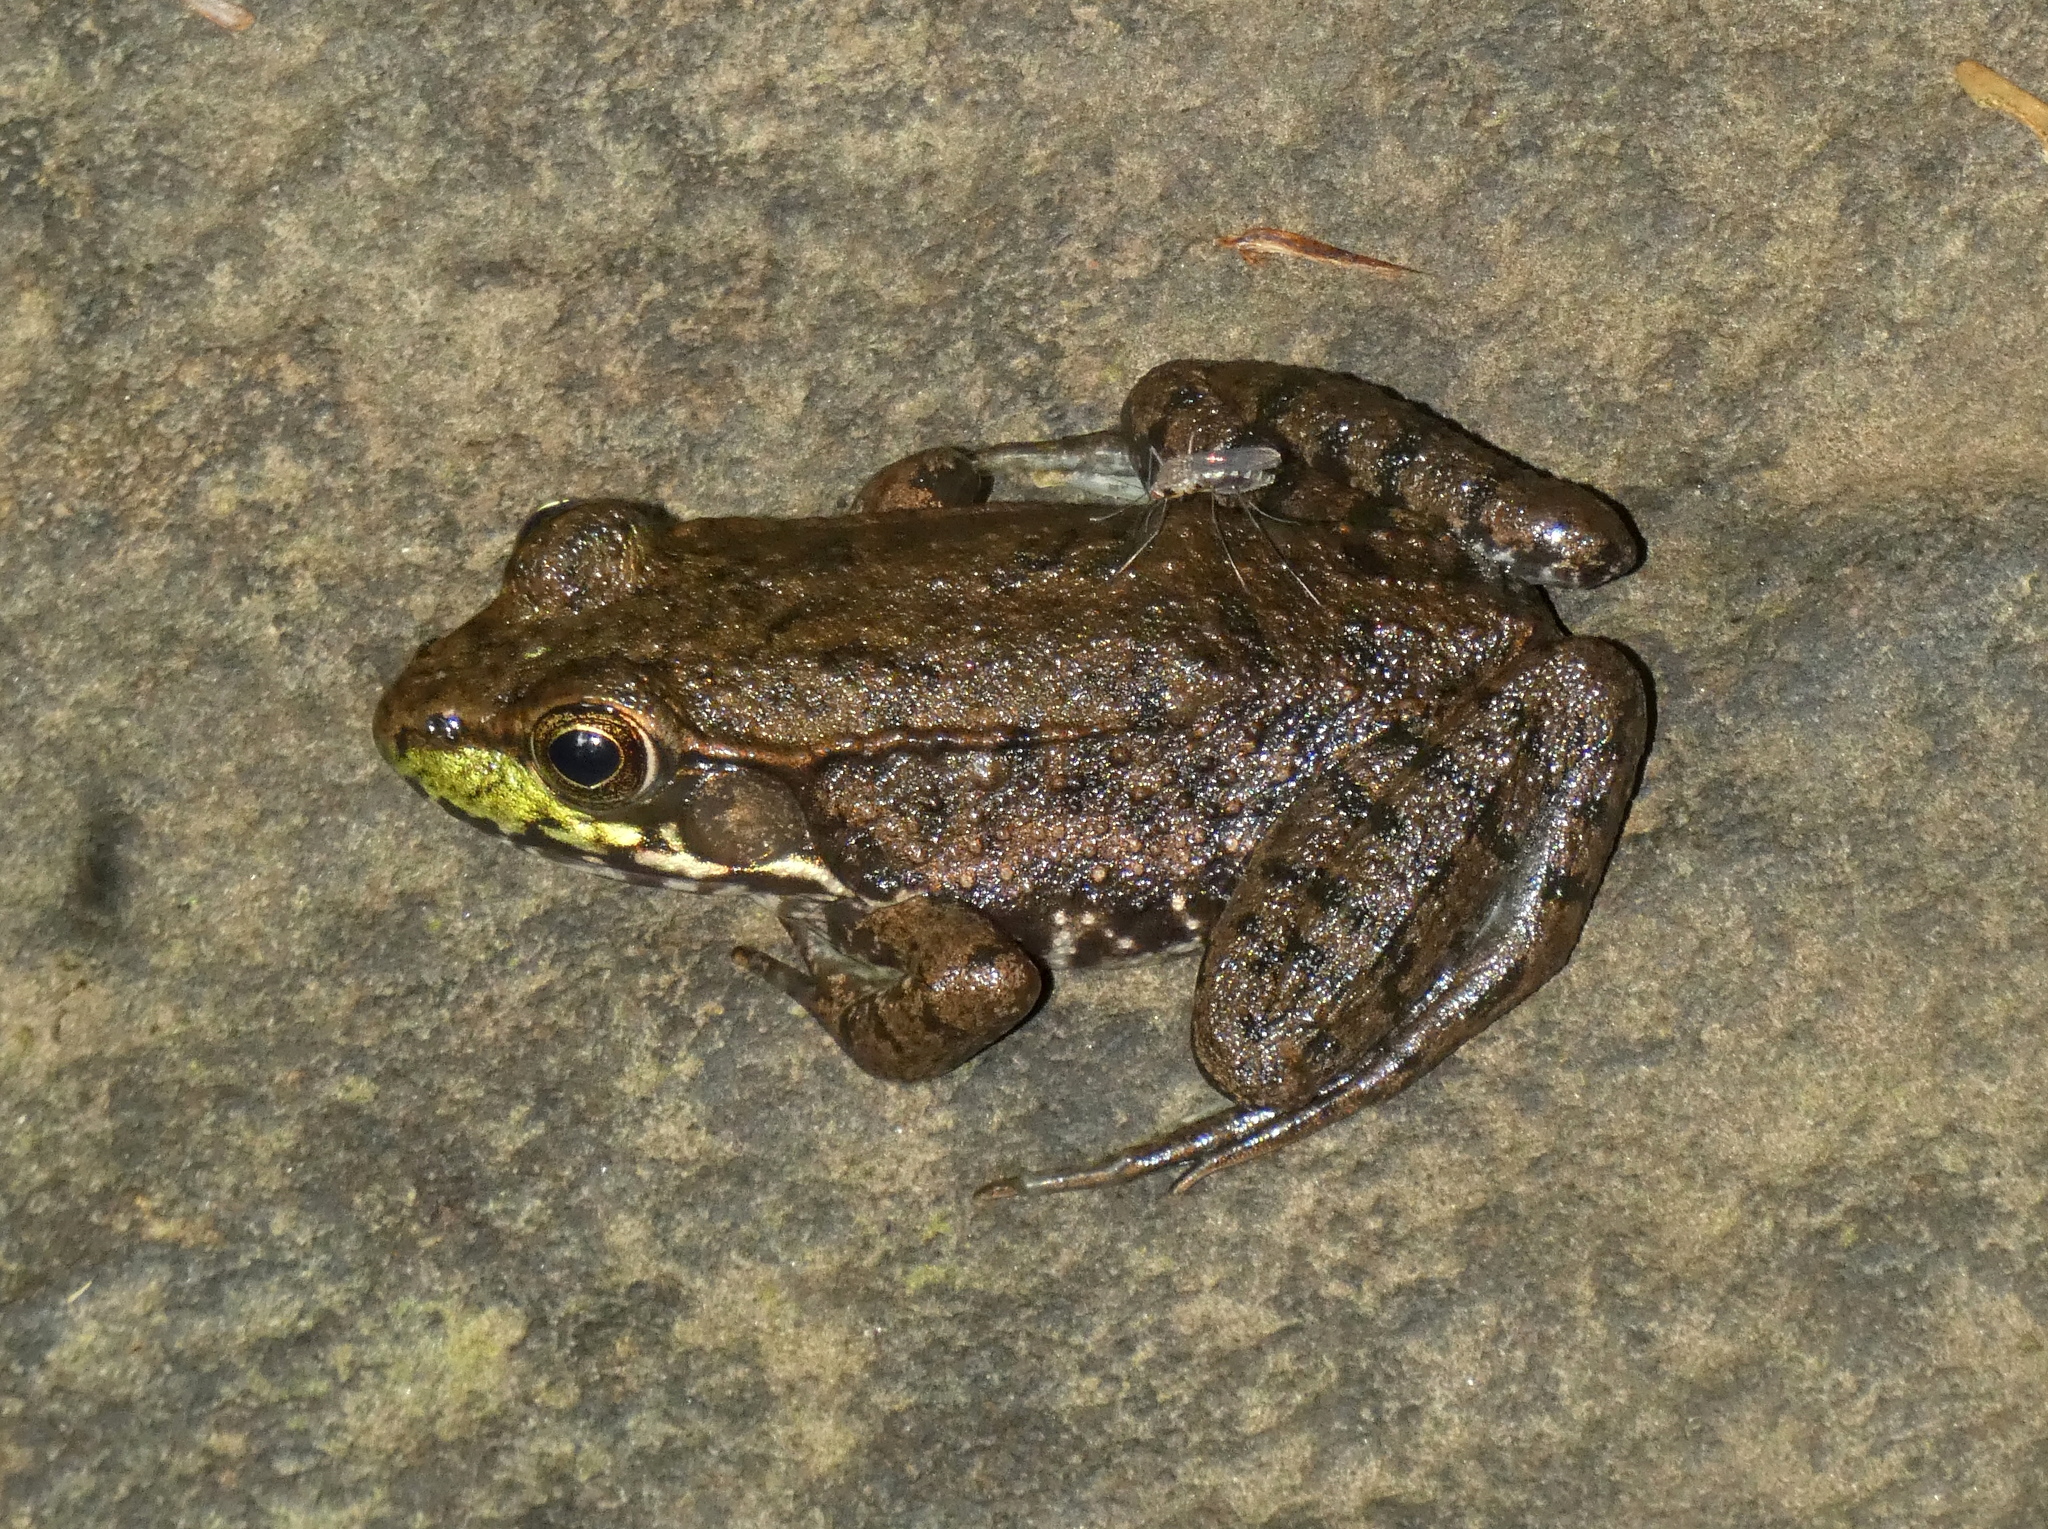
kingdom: Animalia
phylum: Chordata
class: Amphibia
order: Anura
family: Ranidae
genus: Lithobates
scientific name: Lithobates clamitans
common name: Green frog
